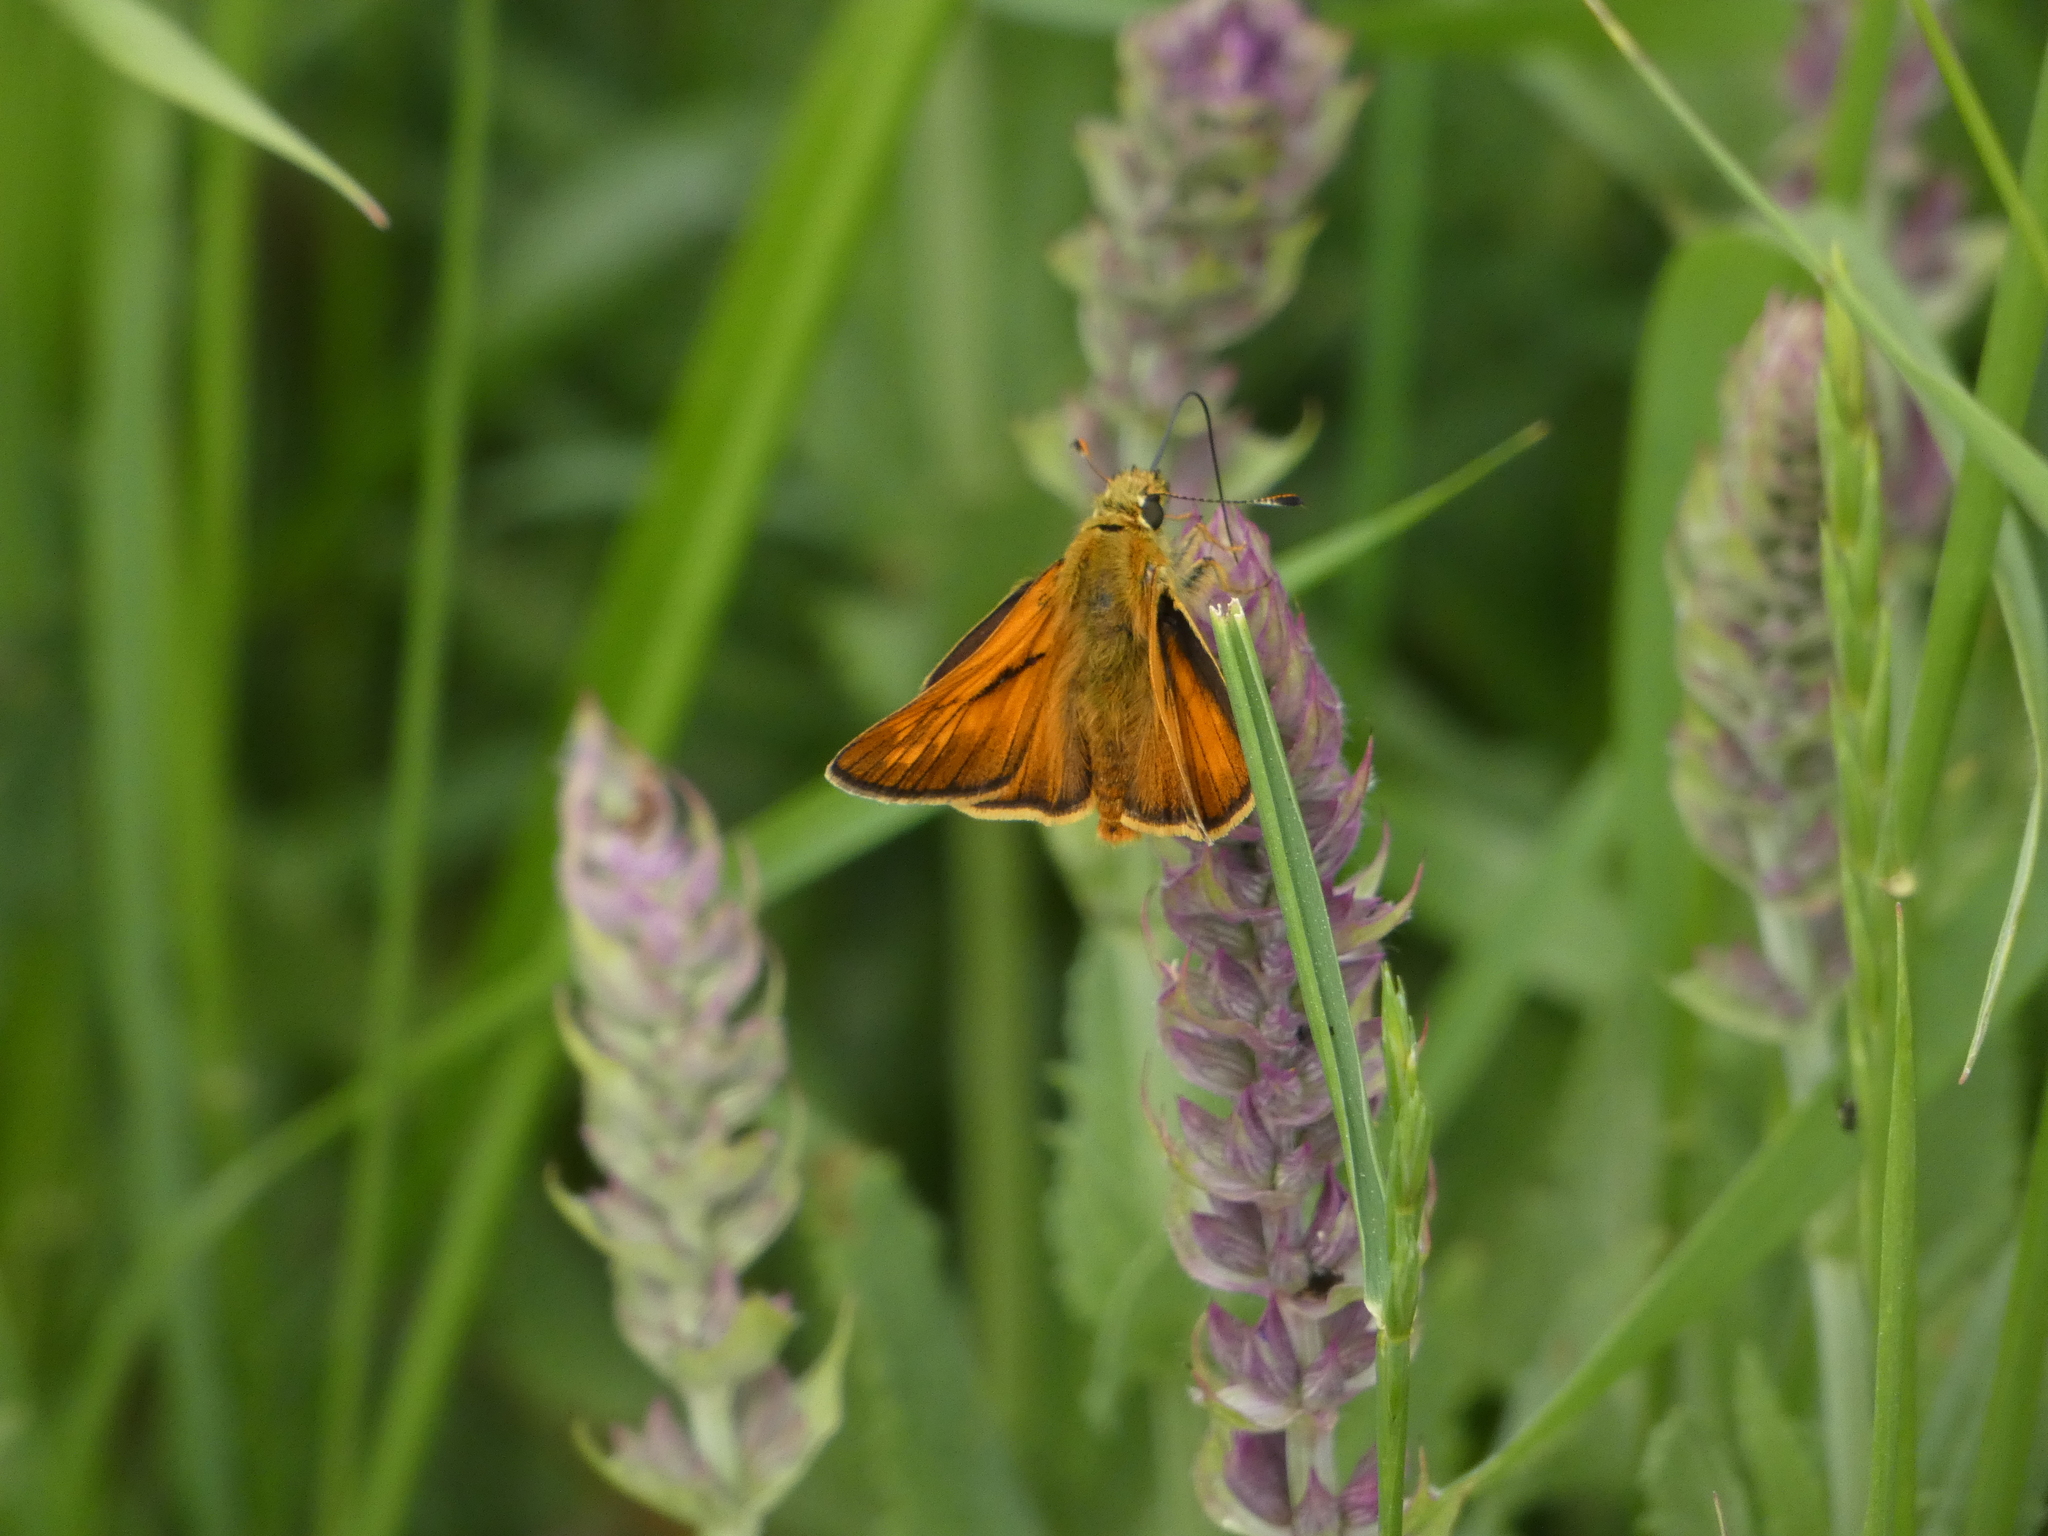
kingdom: Animalia
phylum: Arthropoda
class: Insecta
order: Lepidoptera
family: Hesperiidae
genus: Ochlodes
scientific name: Ochlodes venata
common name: Large skipper
